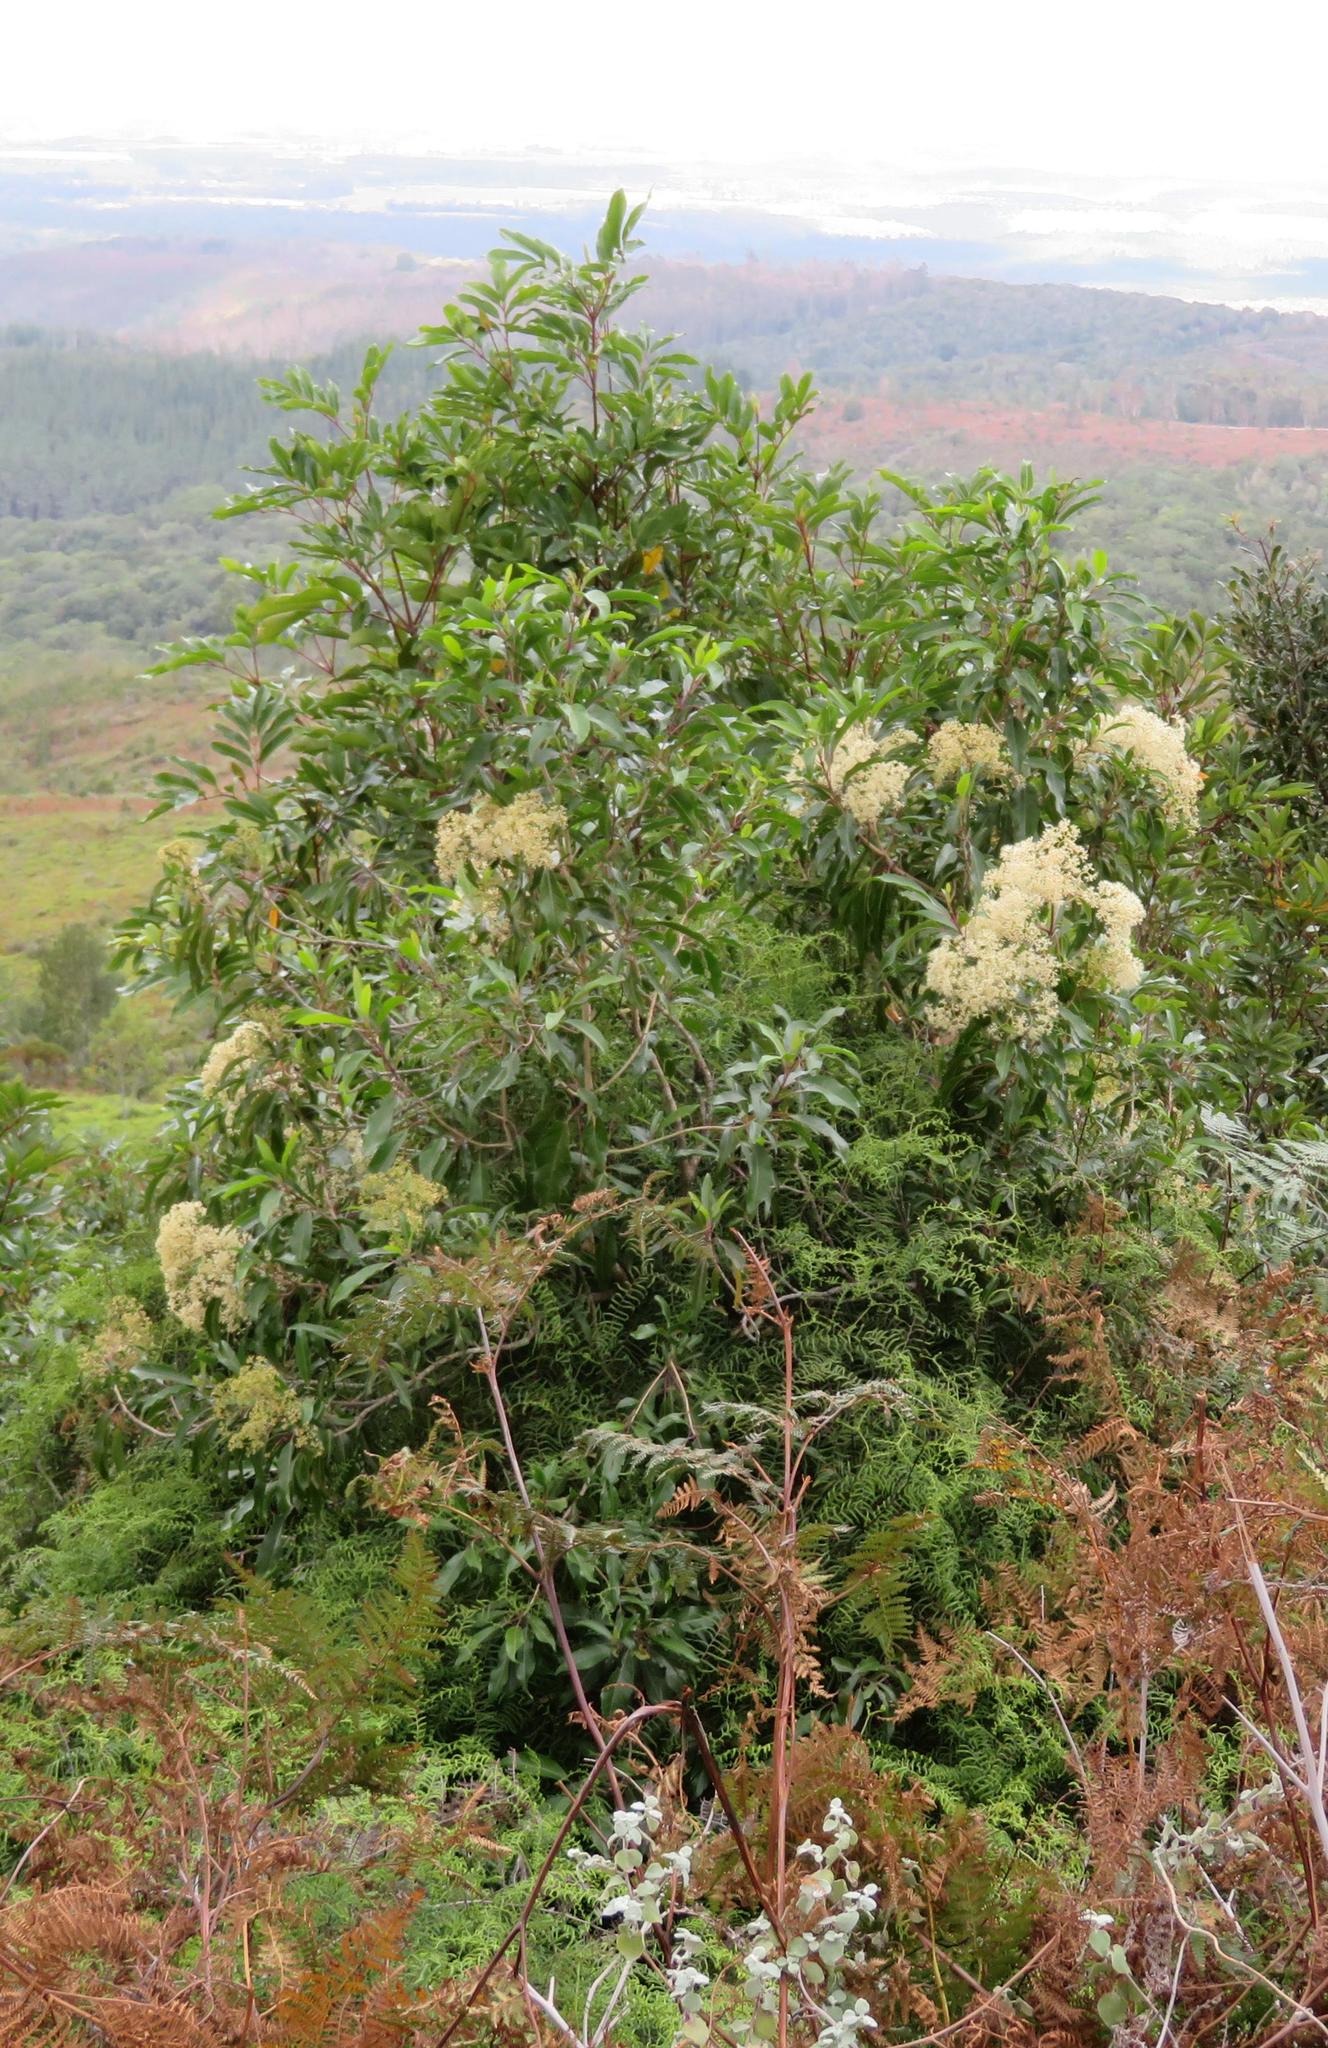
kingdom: Plantae
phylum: Tracheophyta
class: Magnoliopsida
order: Lamiales
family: Stilbaceae
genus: Nuxia
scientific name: Nuxia floribunda
